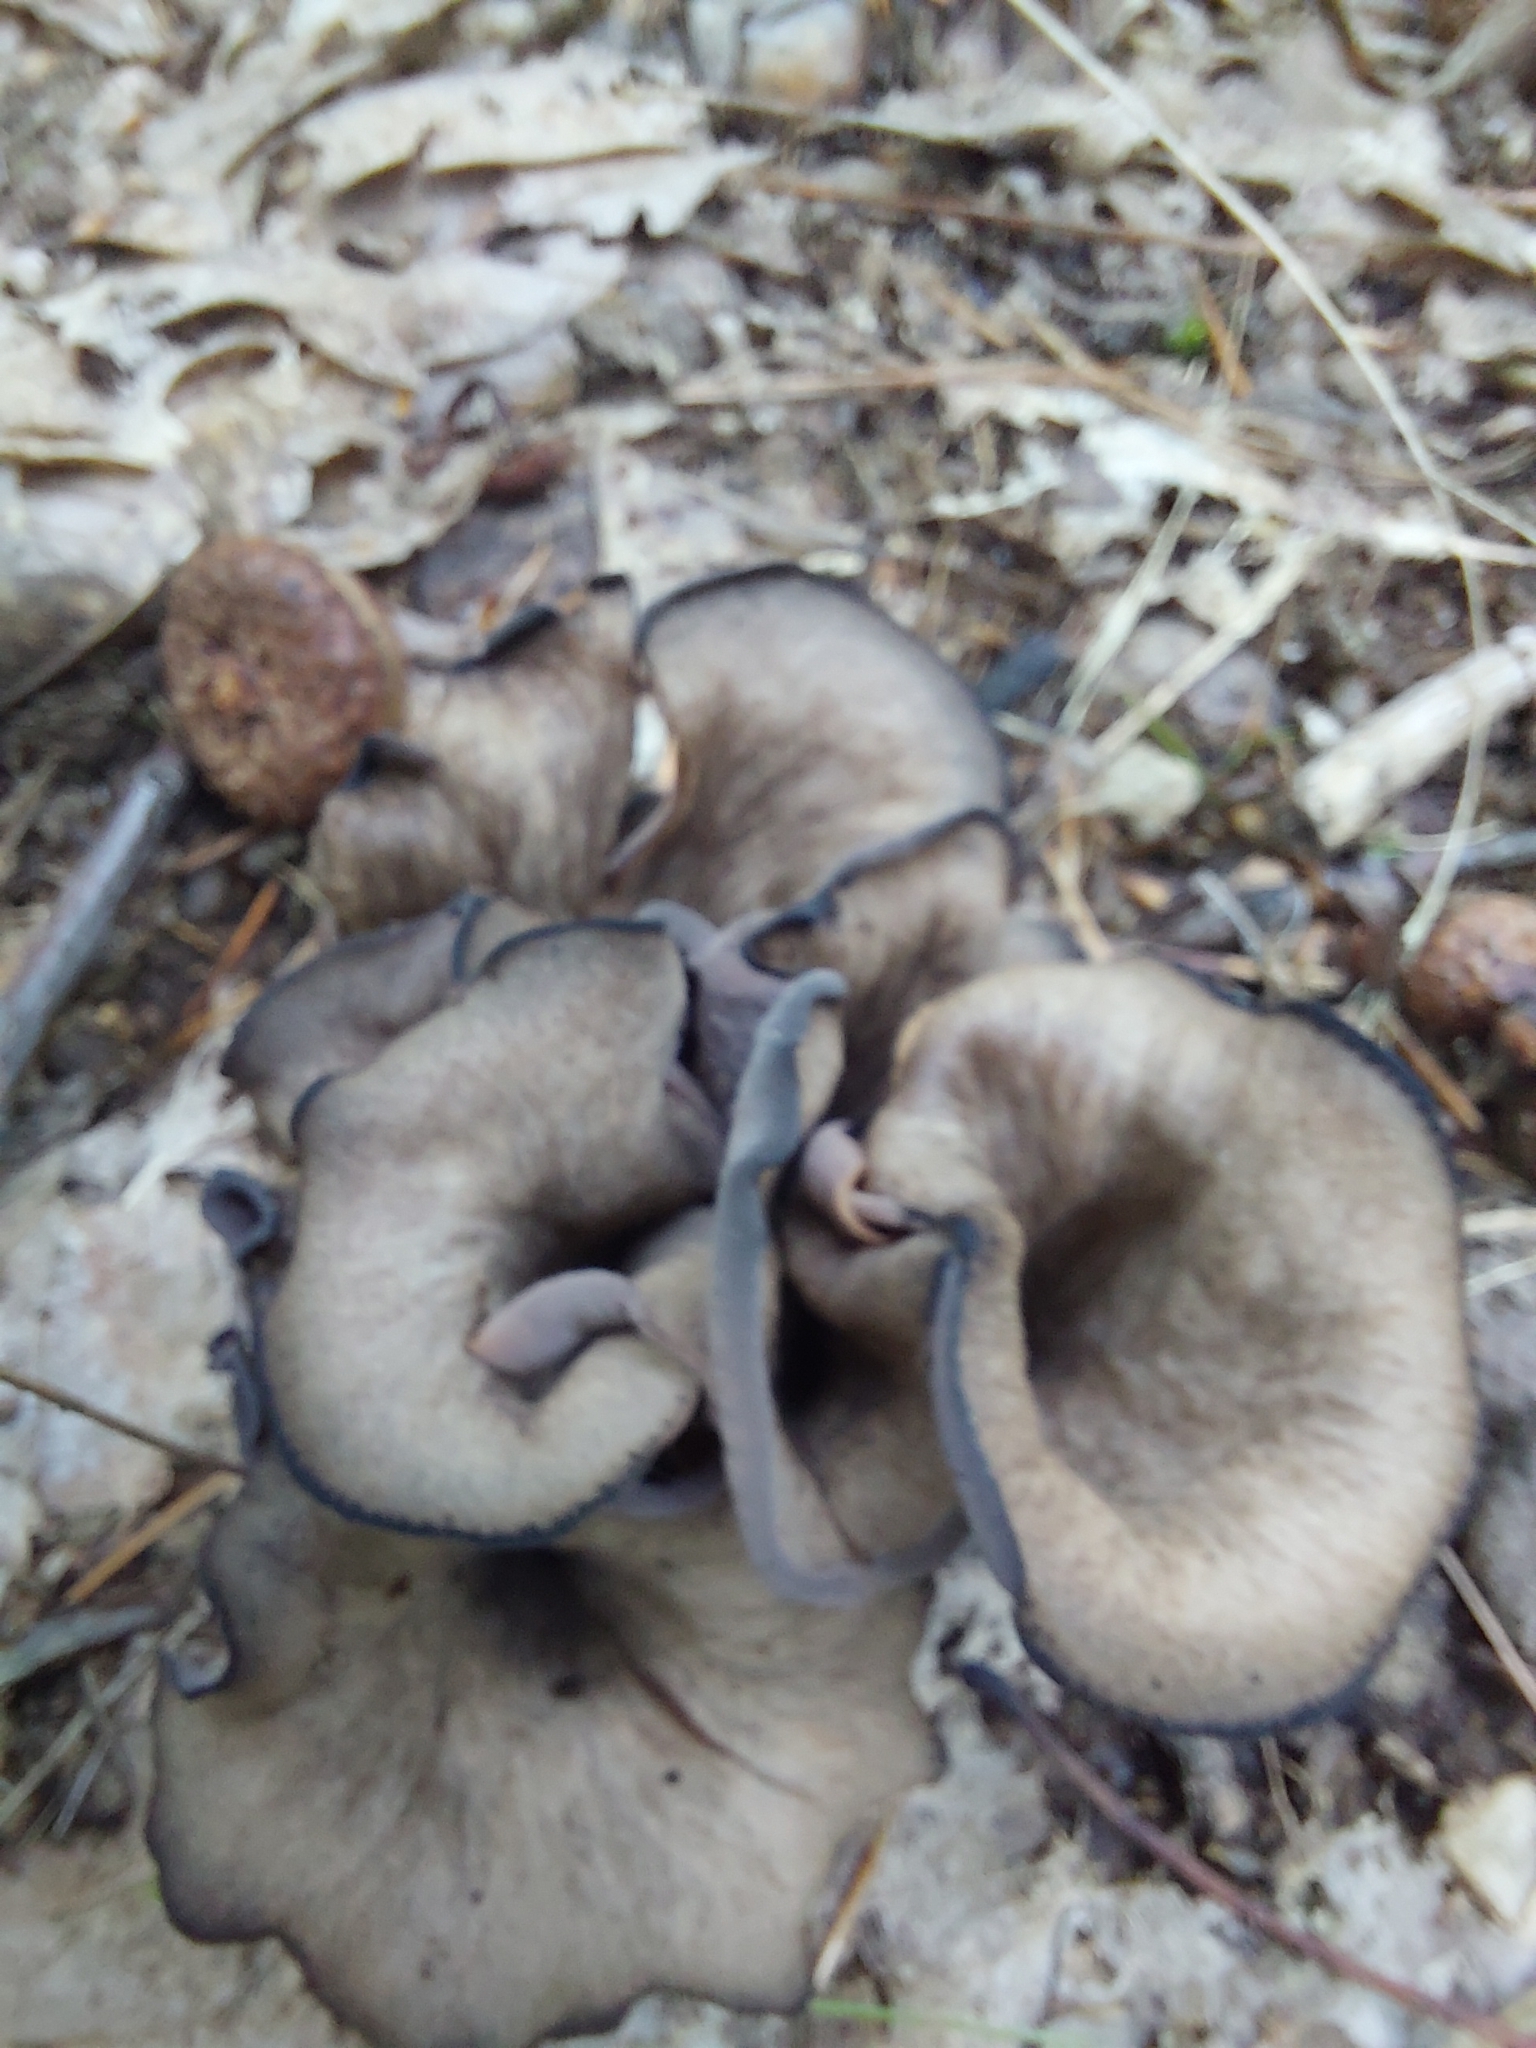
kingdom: Fungi
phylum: Basidiomycota
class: Agaricomycetes
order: Cantharellales
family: Hydnaceae
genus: Craterellus
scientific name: Craterellus cornucopioides
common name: Horn of plenty
